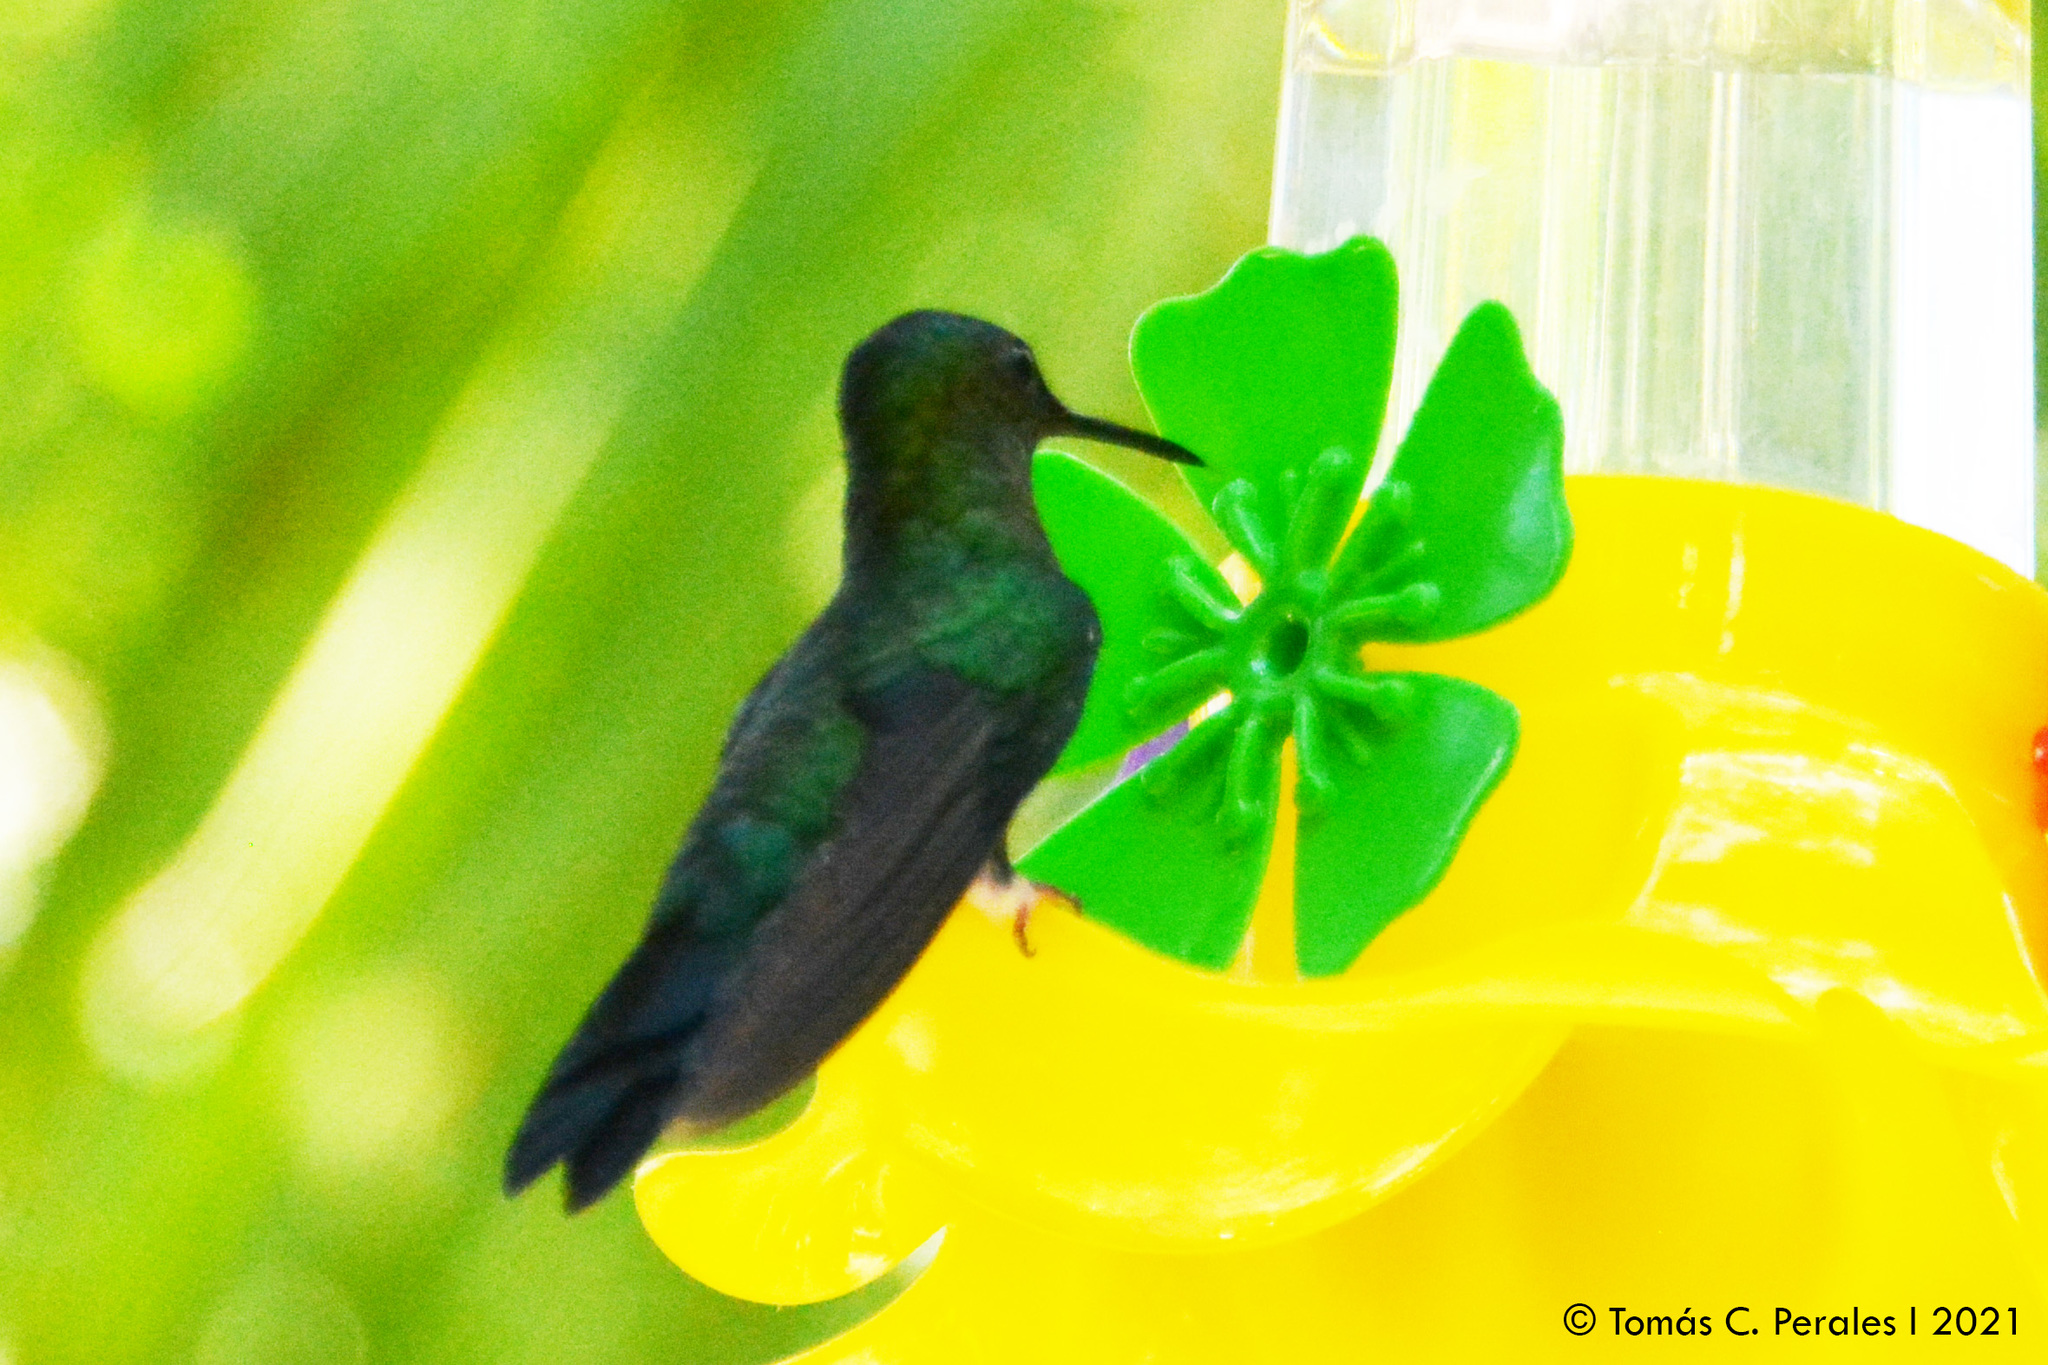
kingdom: Animalia
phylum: Chordata
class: Aves
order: Apodiformes
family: Trochilidae
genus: Thalurania
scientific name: Thalurania glaucopis
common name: Violet-capped woodnymph
